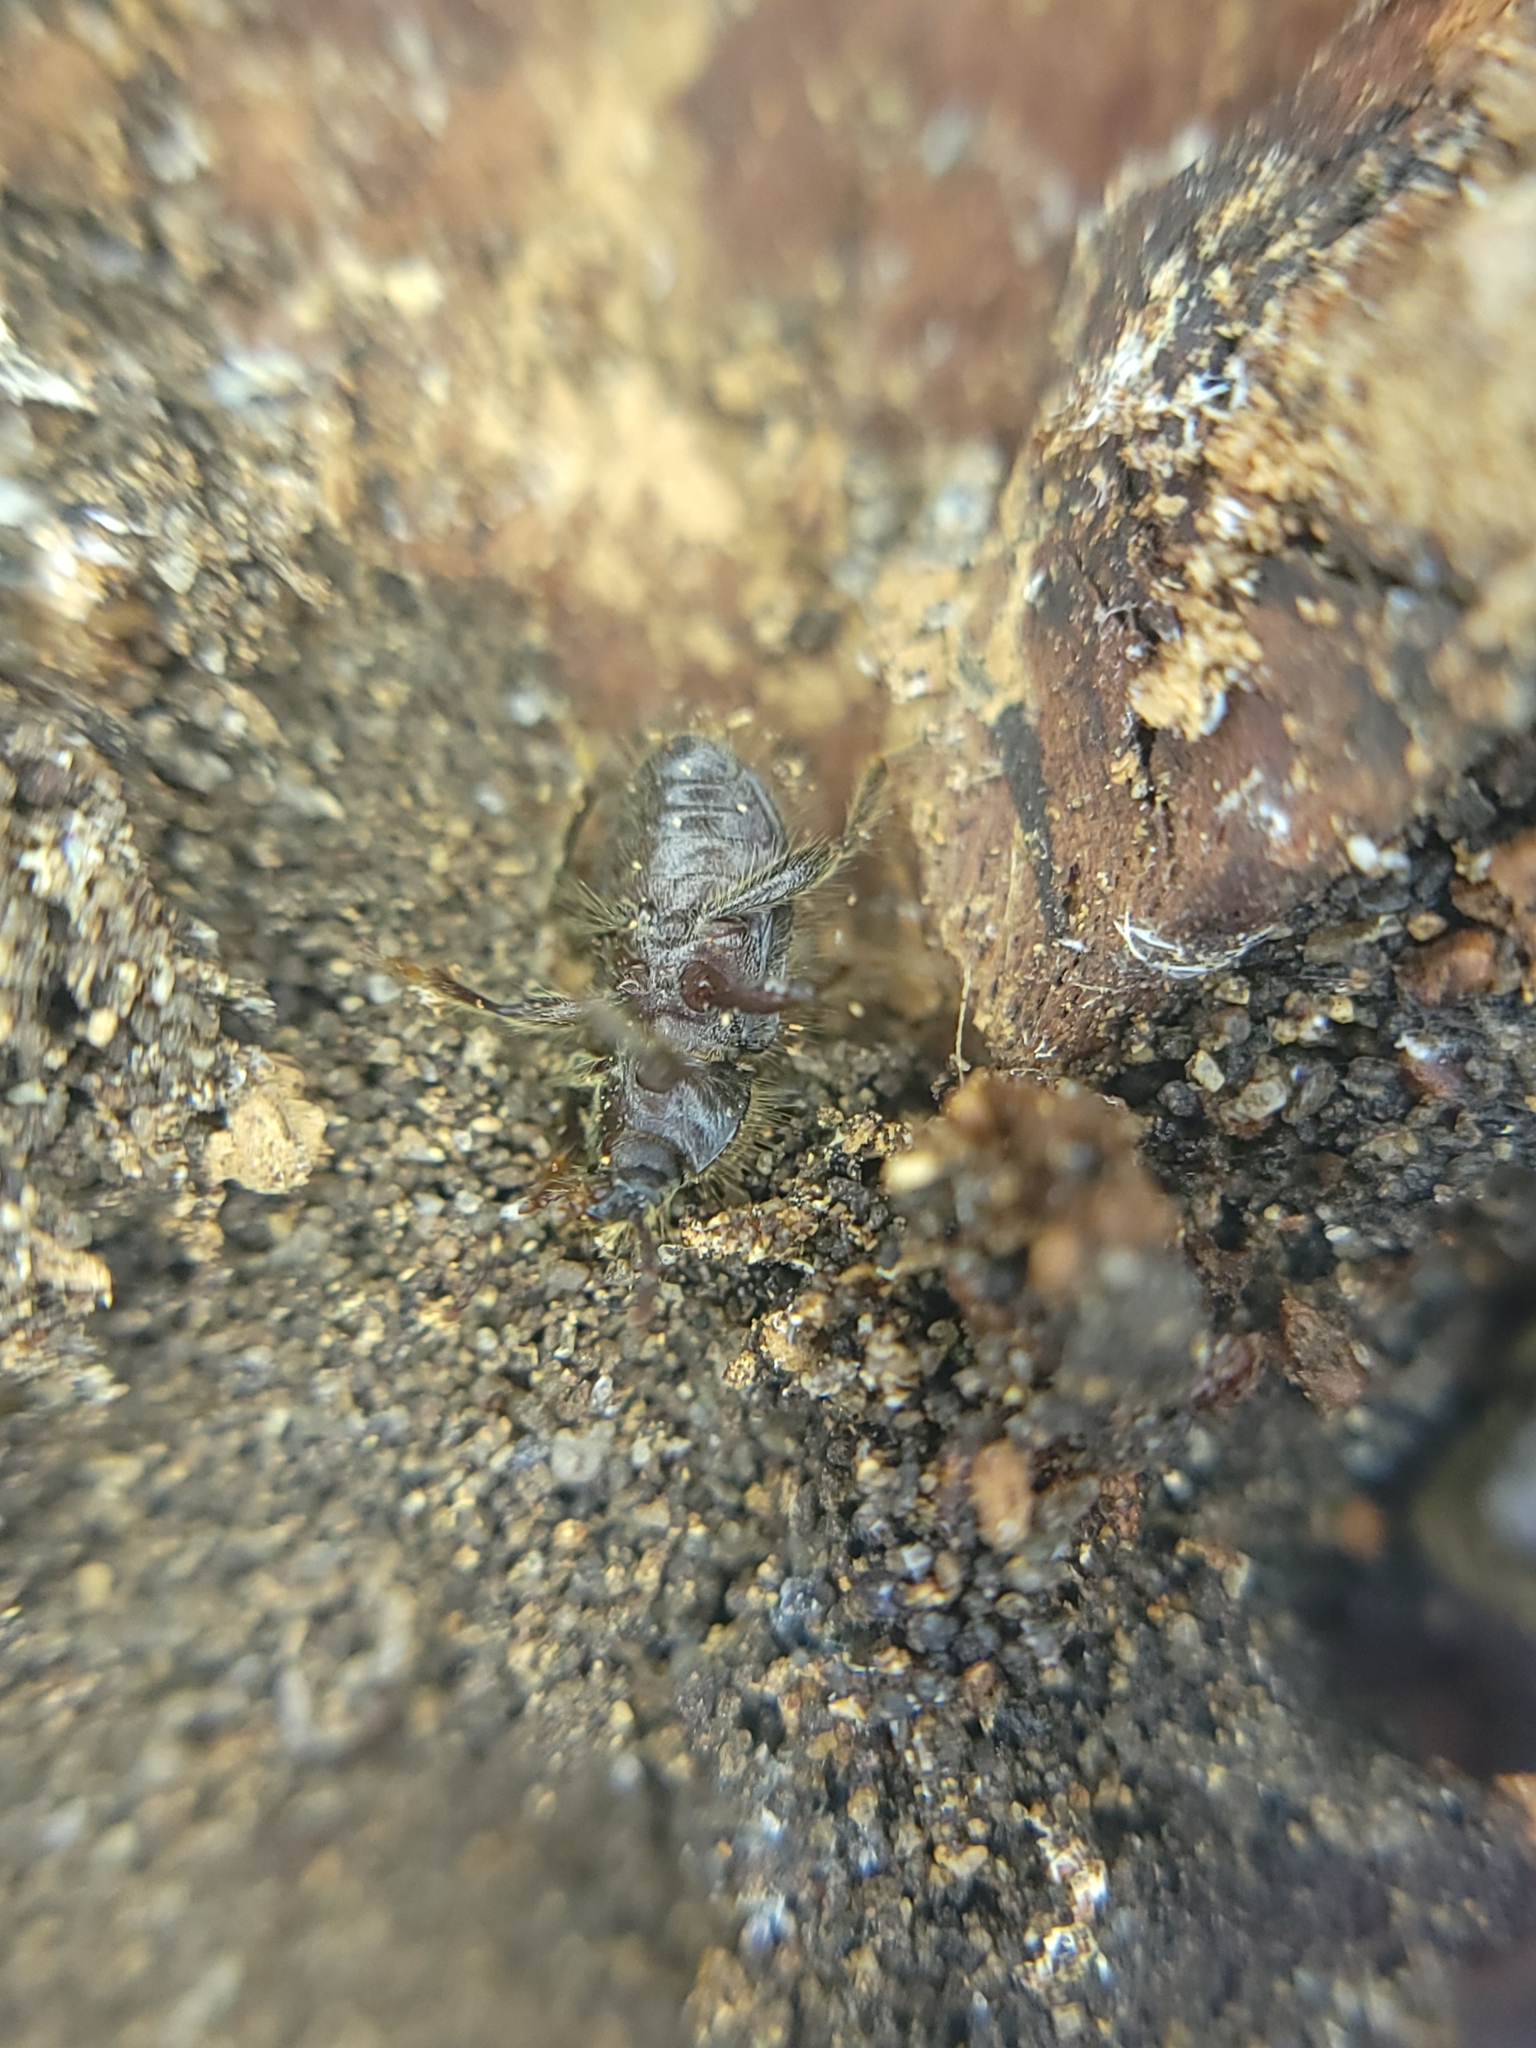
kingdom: Animalia
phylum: Arthropoda
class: Insecta
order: Coleoptera
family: Tenebrionidae
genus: Eleodes
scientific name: Eleodes littoralis
